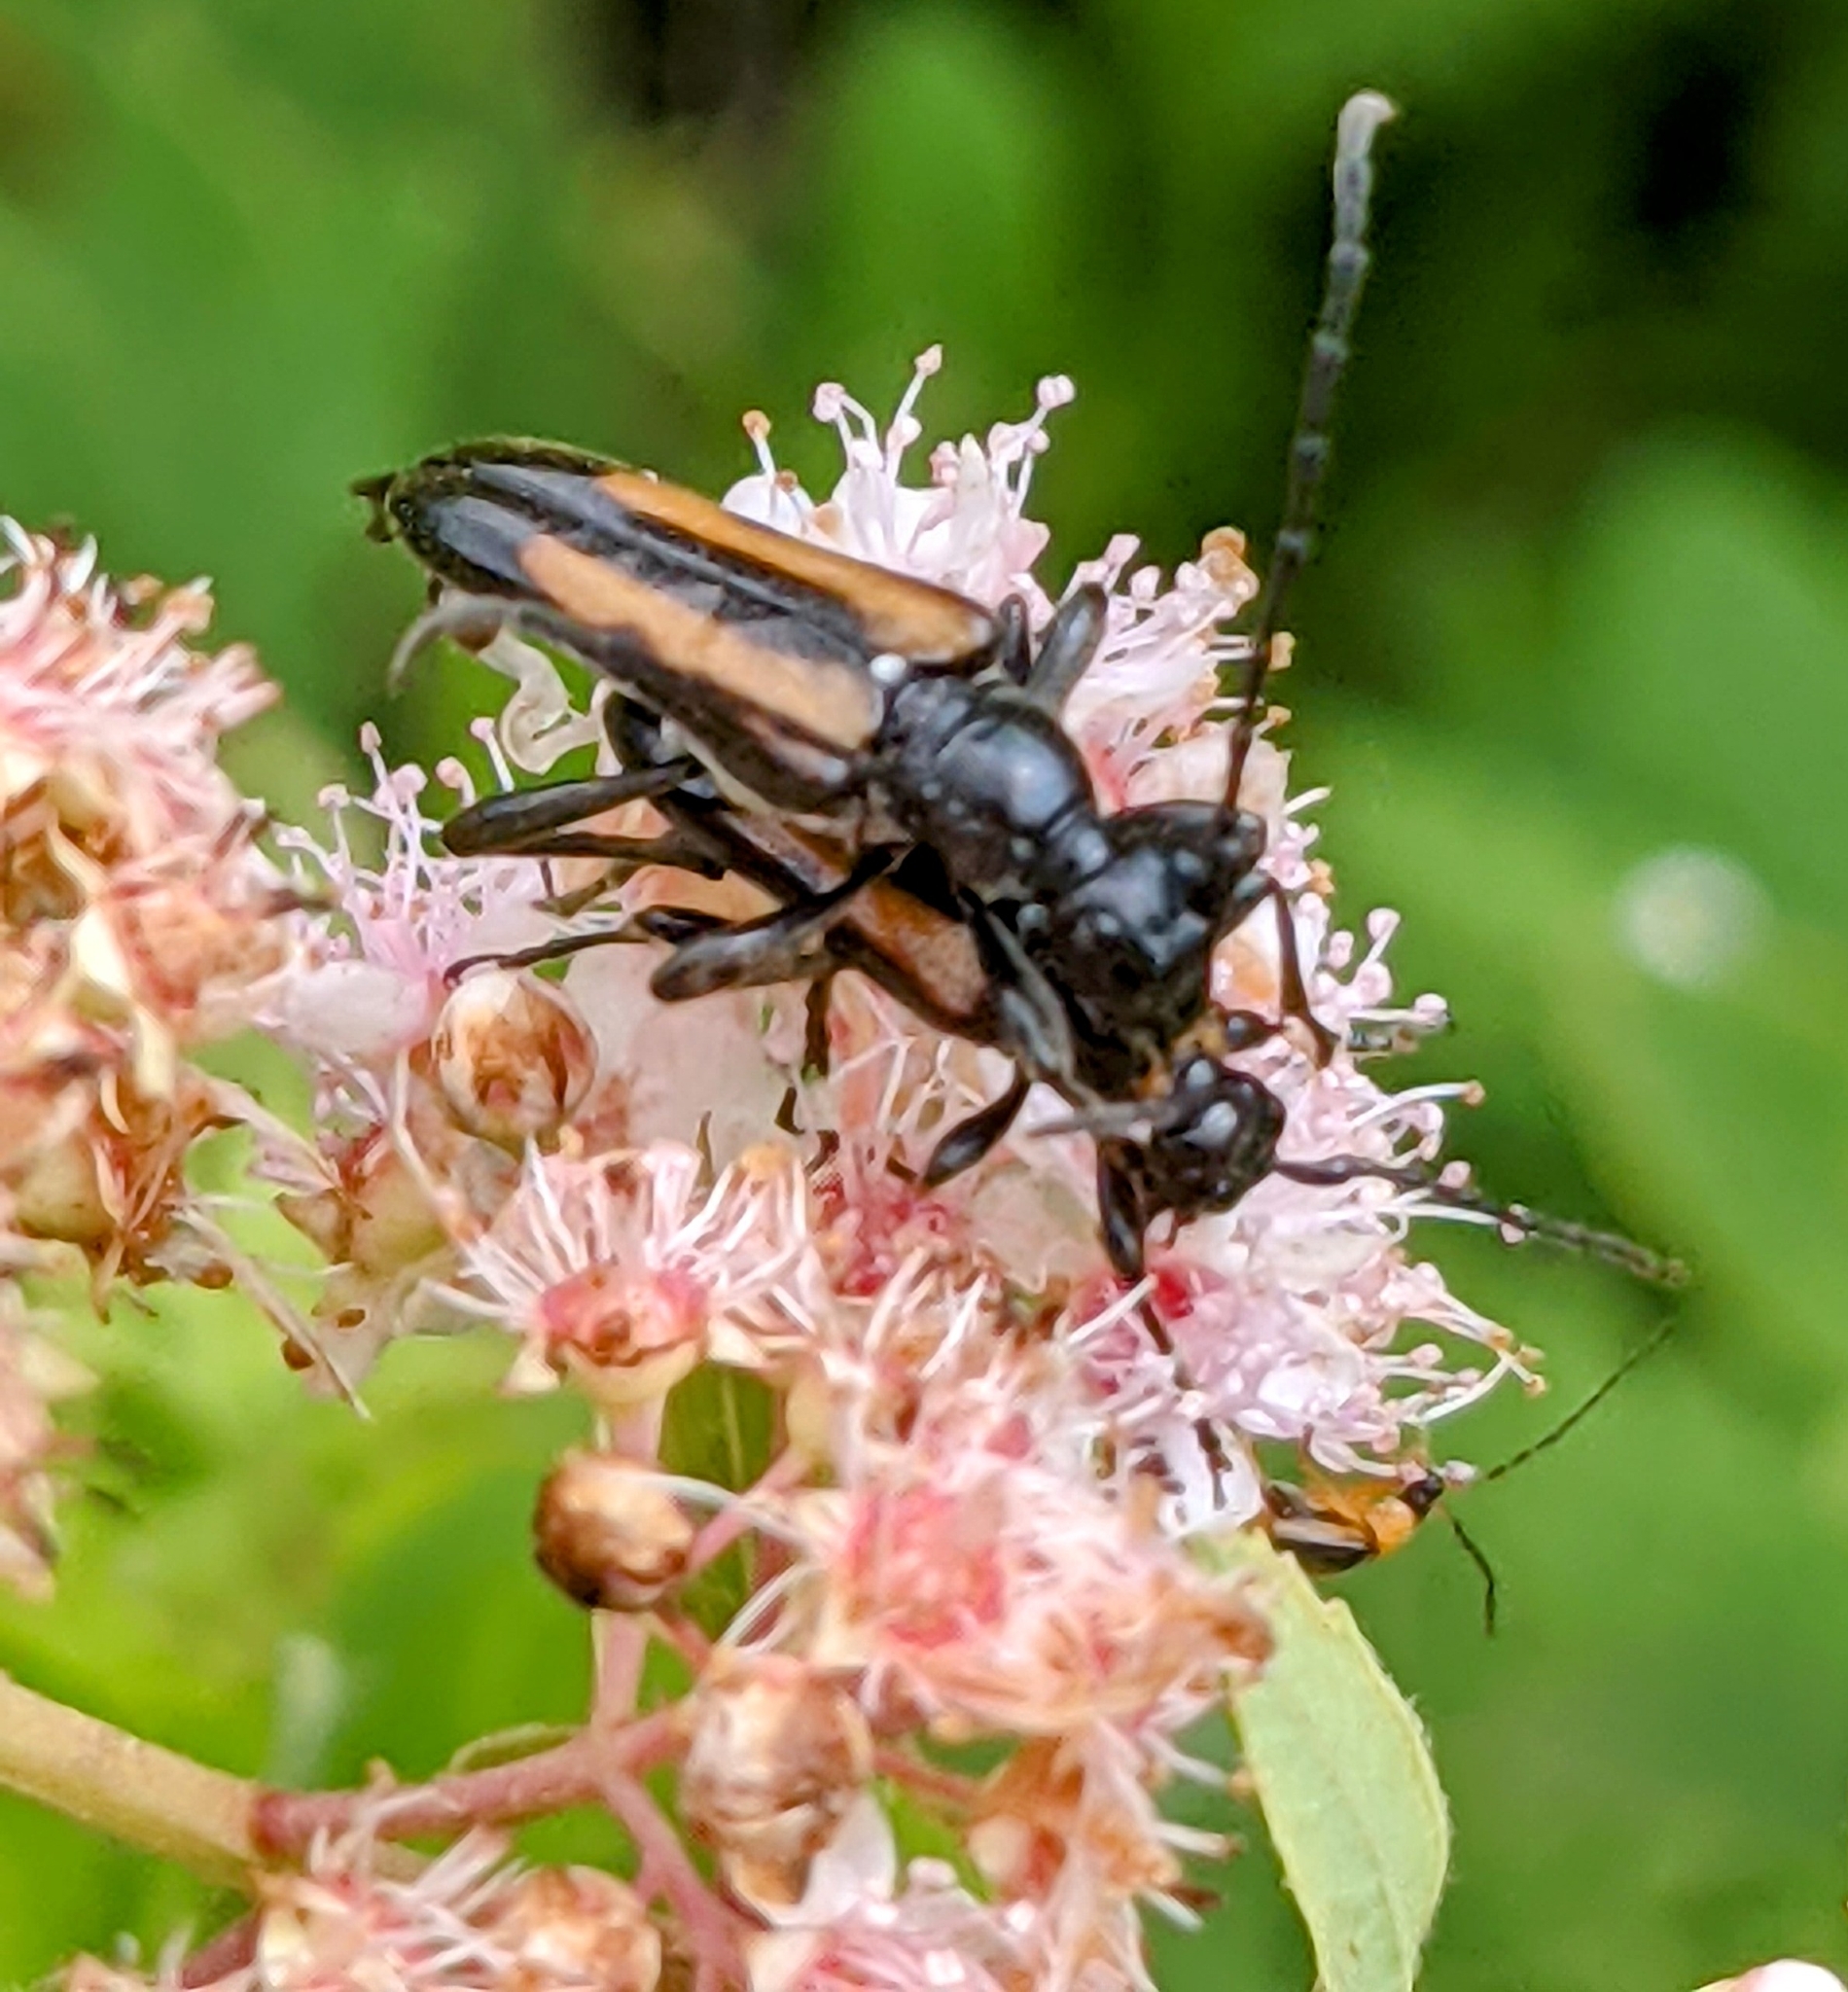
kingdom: Animalia
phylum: Arthropoda
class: Insecta
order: Coleoptera
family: Cerambycidae
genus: Strangalepta
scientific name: Strangalepta abbreviata
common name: Strangalepta flower longhorn beetle
